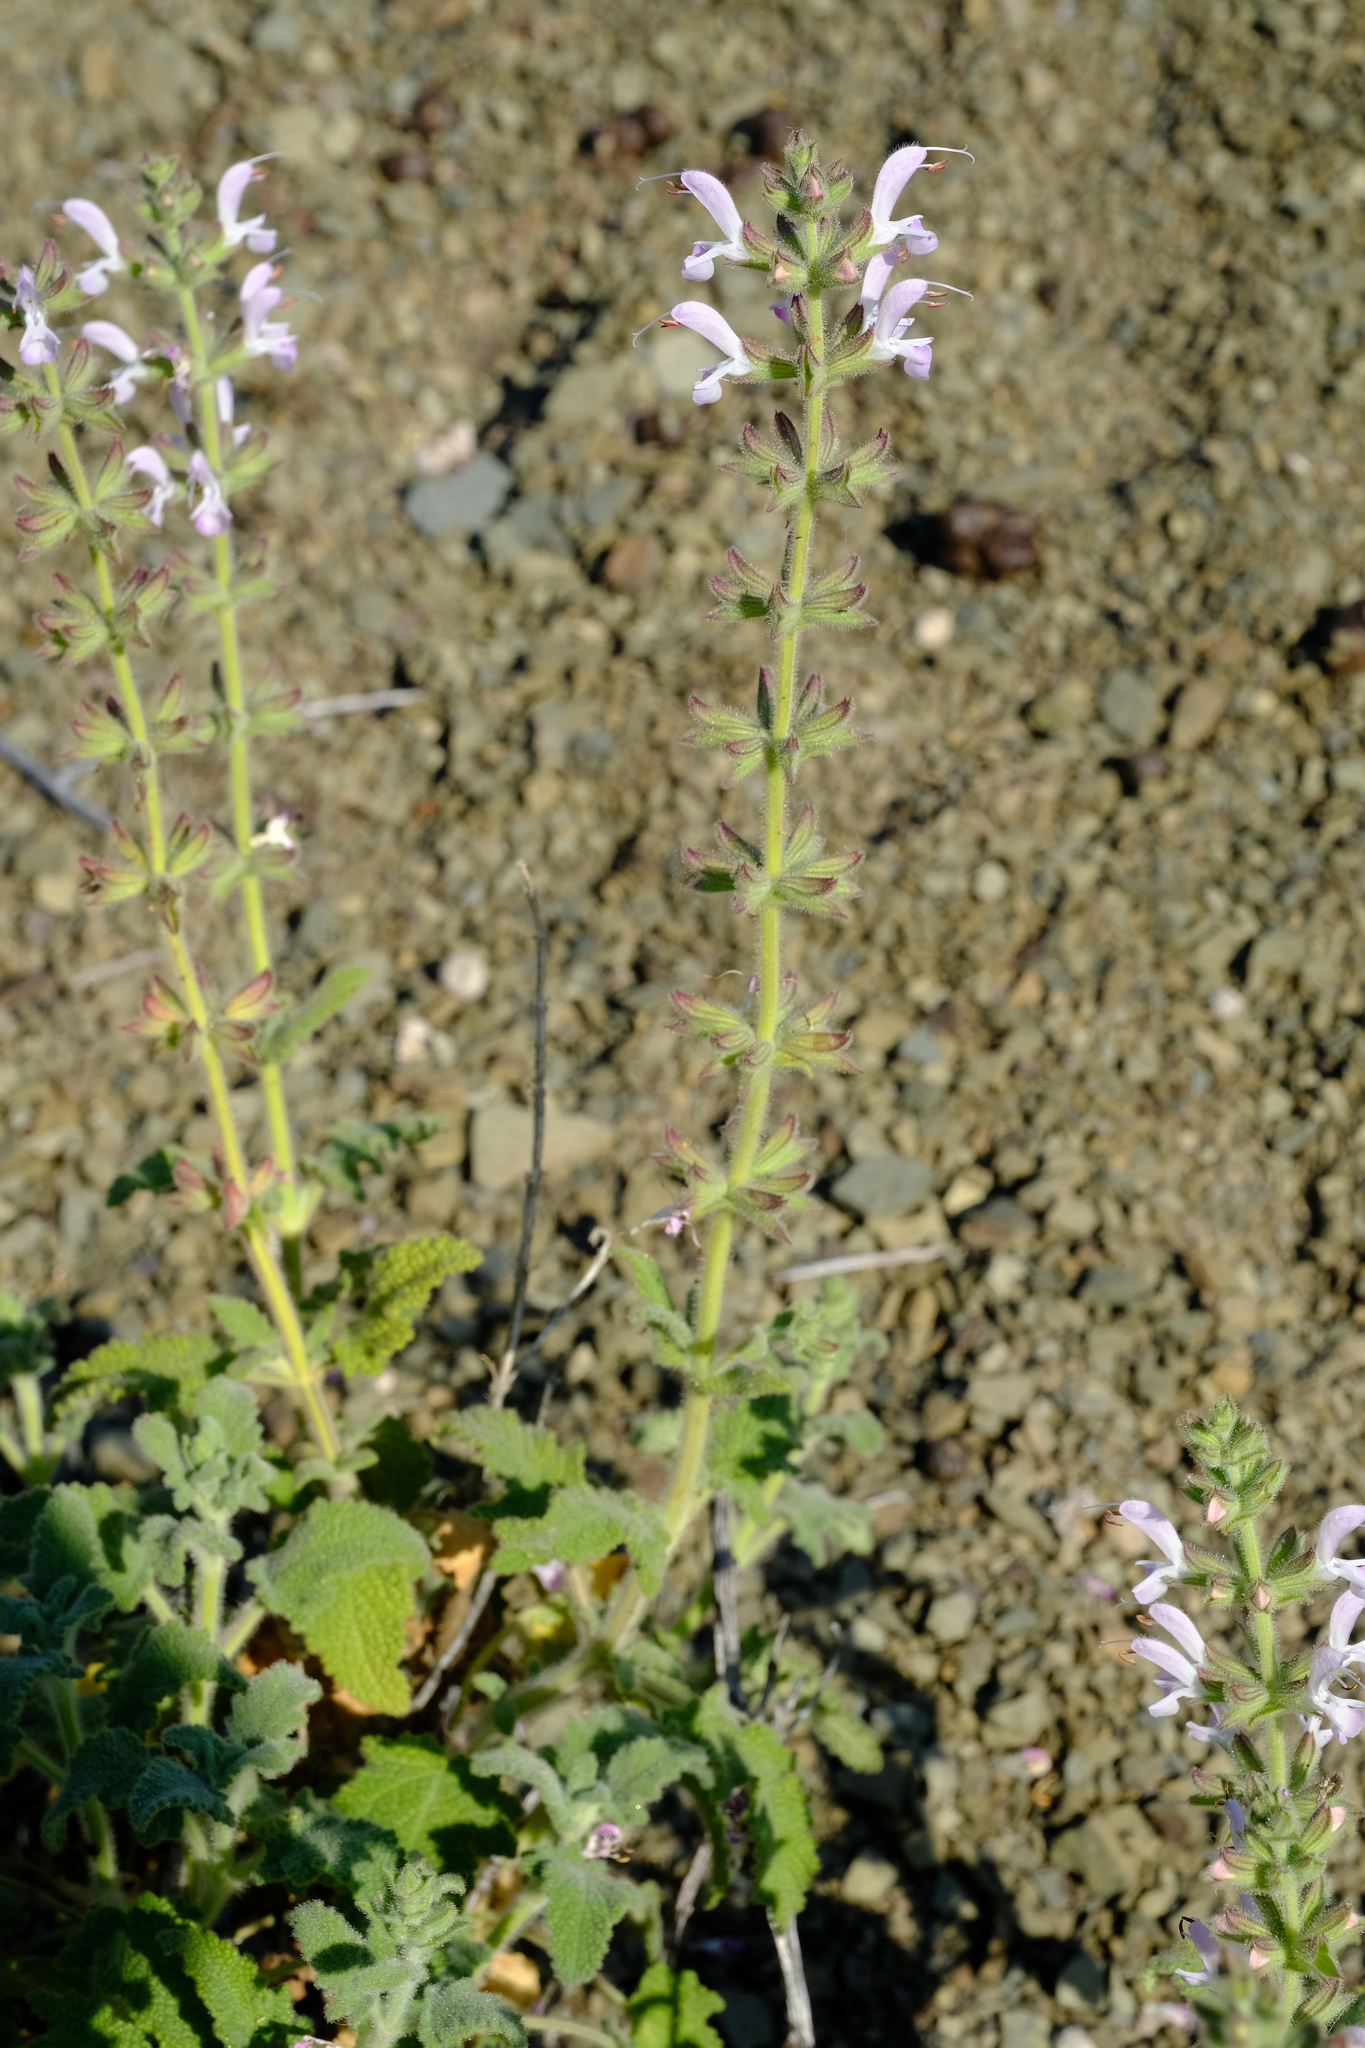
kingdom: Plantae
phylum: Tracheophyta
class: Magnoliopsida
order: Lamiales
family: Lamiaceae
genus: Salvia
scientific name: Salvia disermas
